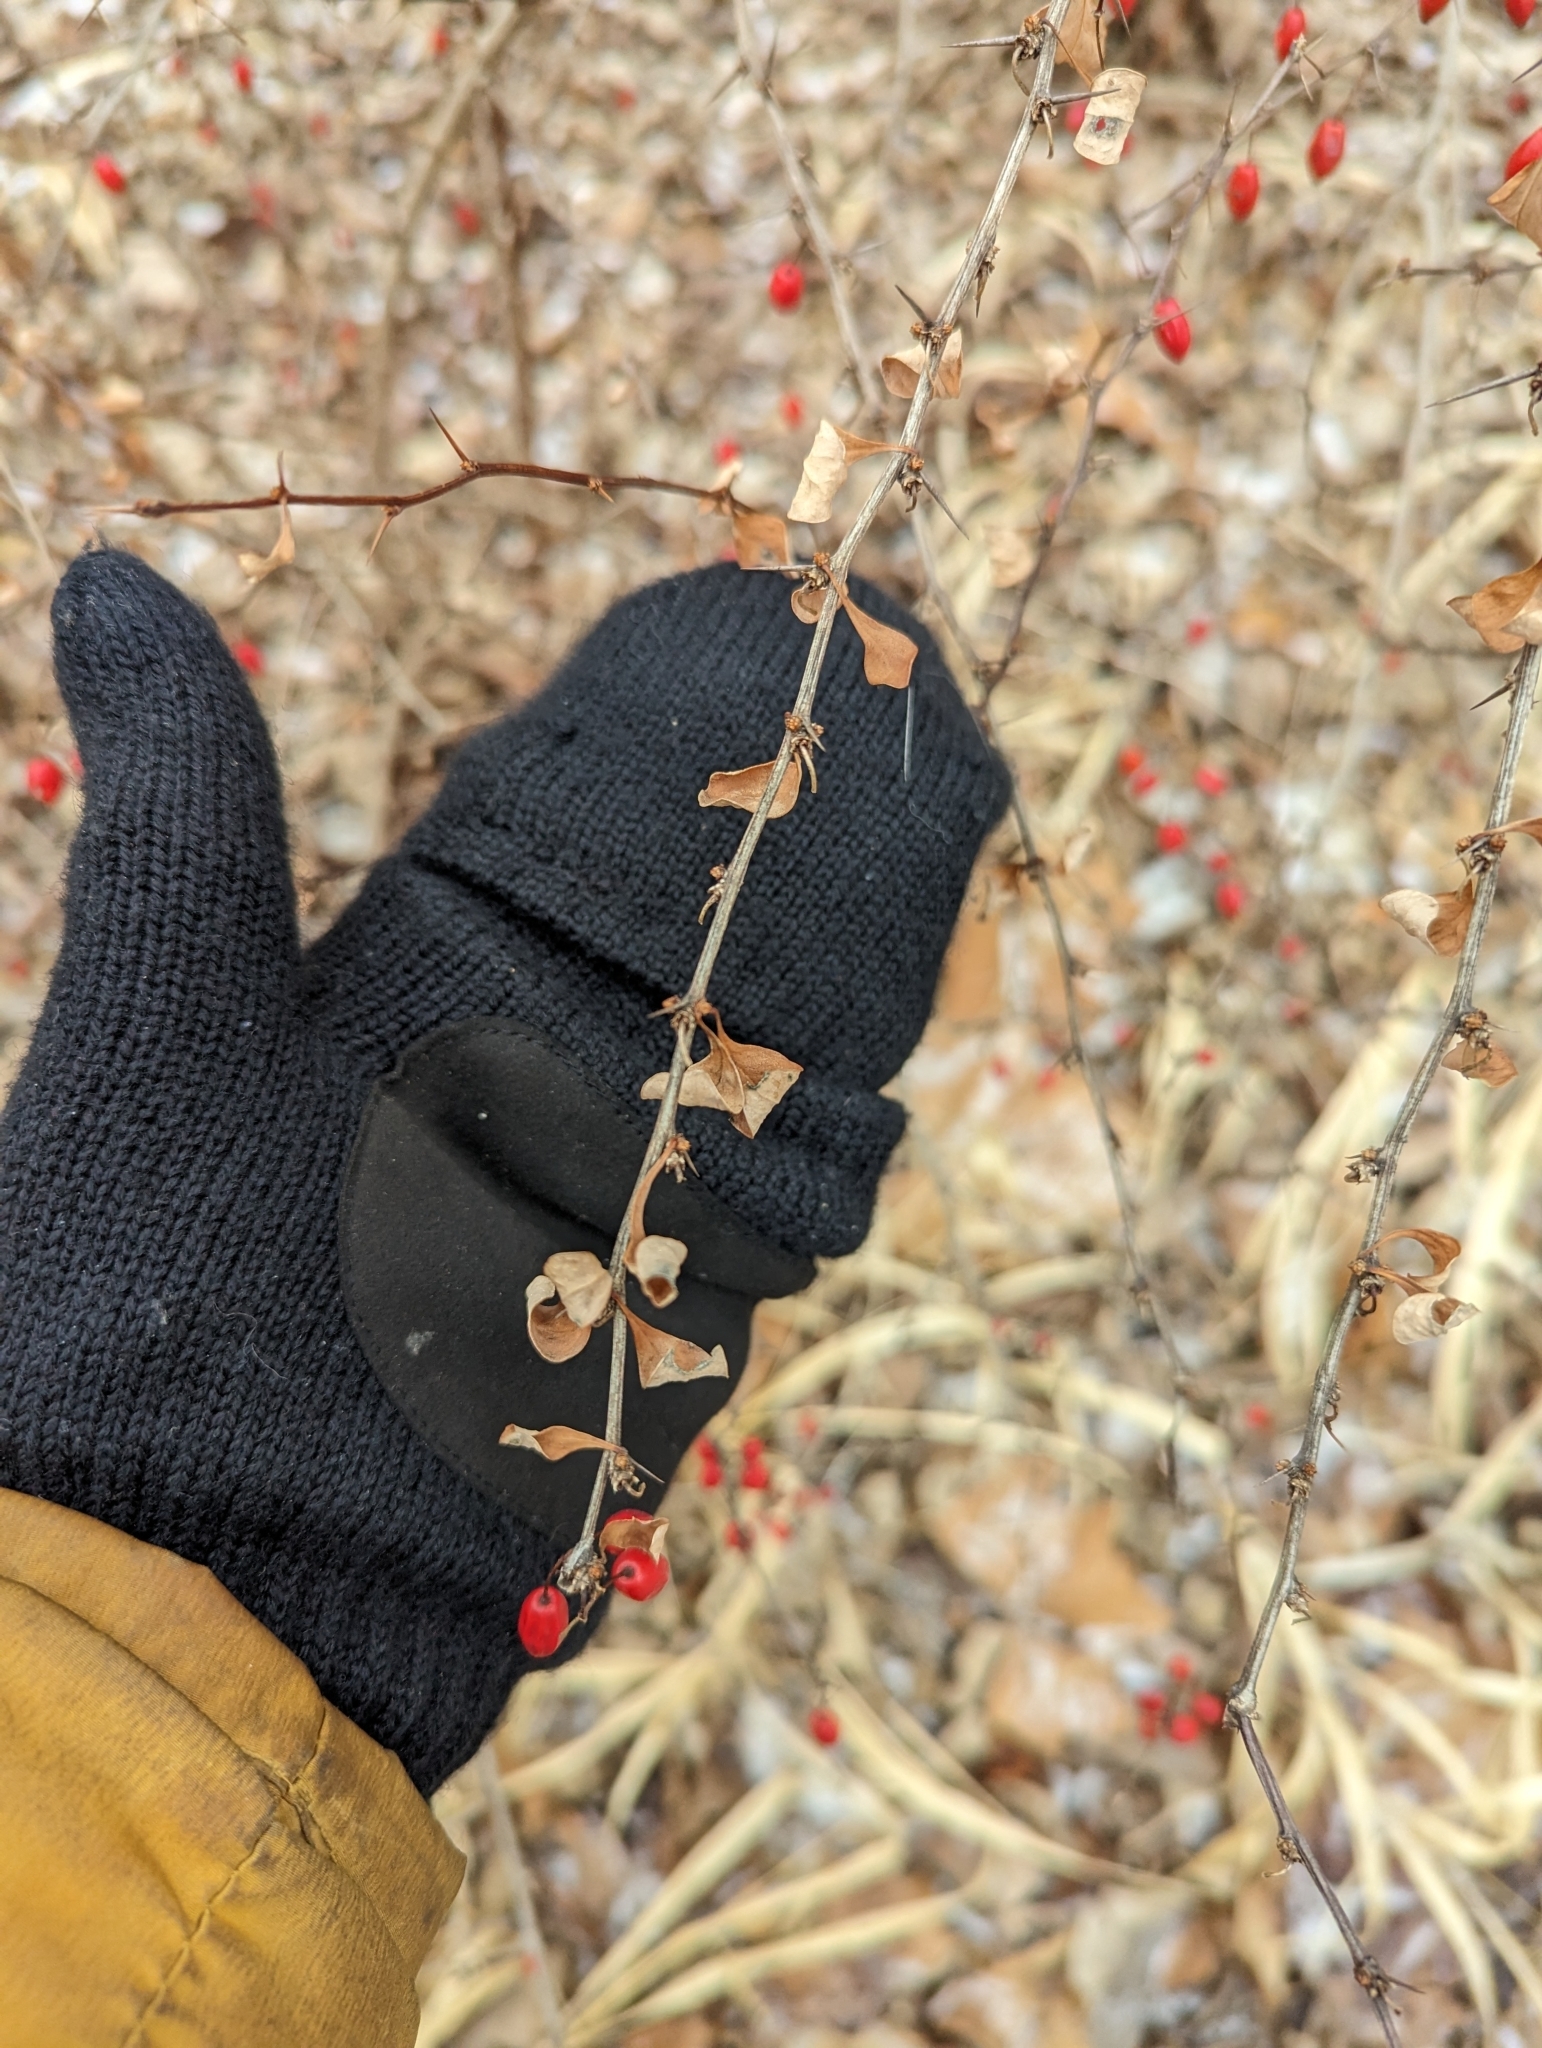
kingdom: Plantae
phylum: Tracheophyta
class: Magnoliopsida
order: Ranunculales
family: Berberidaceae
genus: Berberis
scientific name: Berberis thunbergii
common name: Japanese barberry
